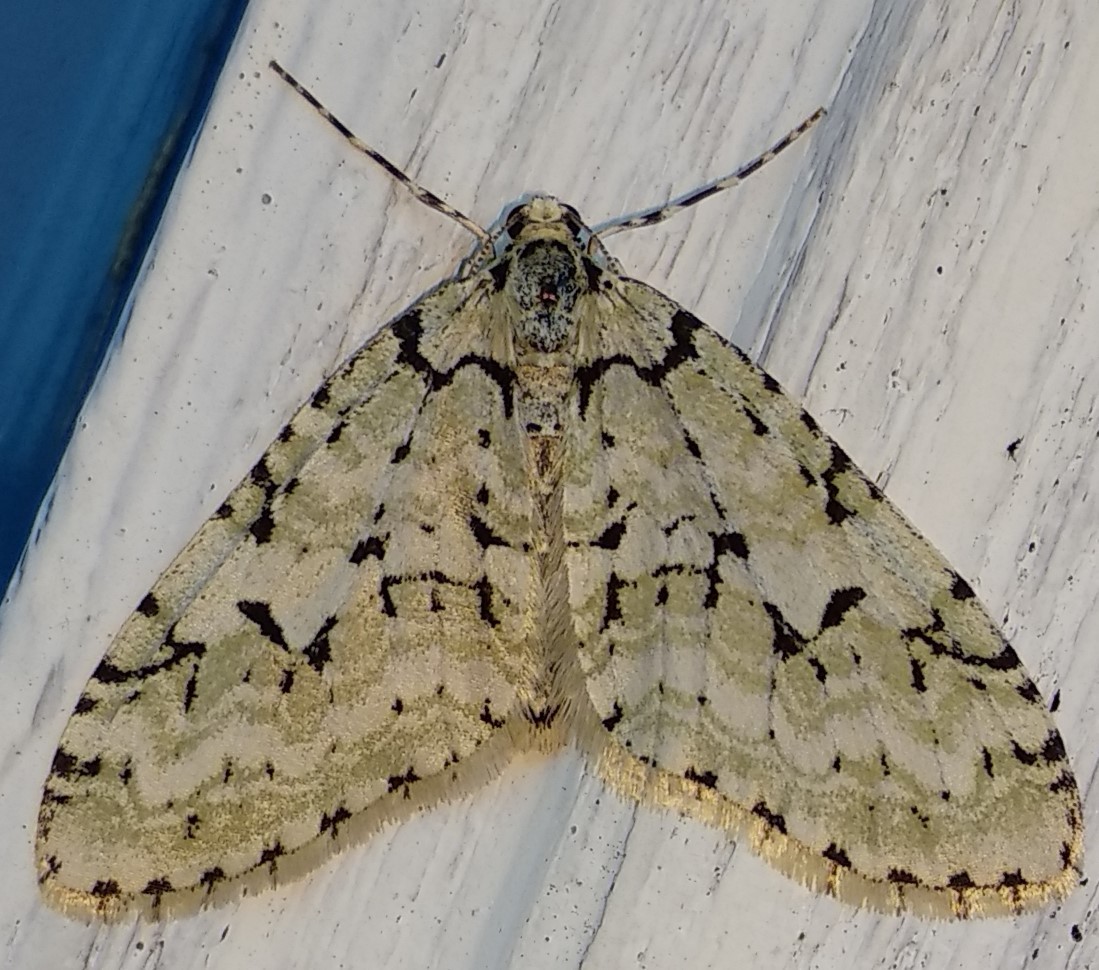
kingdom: Animalia
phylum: Arthropoda
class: Insecta
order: Lepidoptera
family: Geometridae
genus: Cladara
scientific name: Cladara atroliturata
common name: Scribbler
